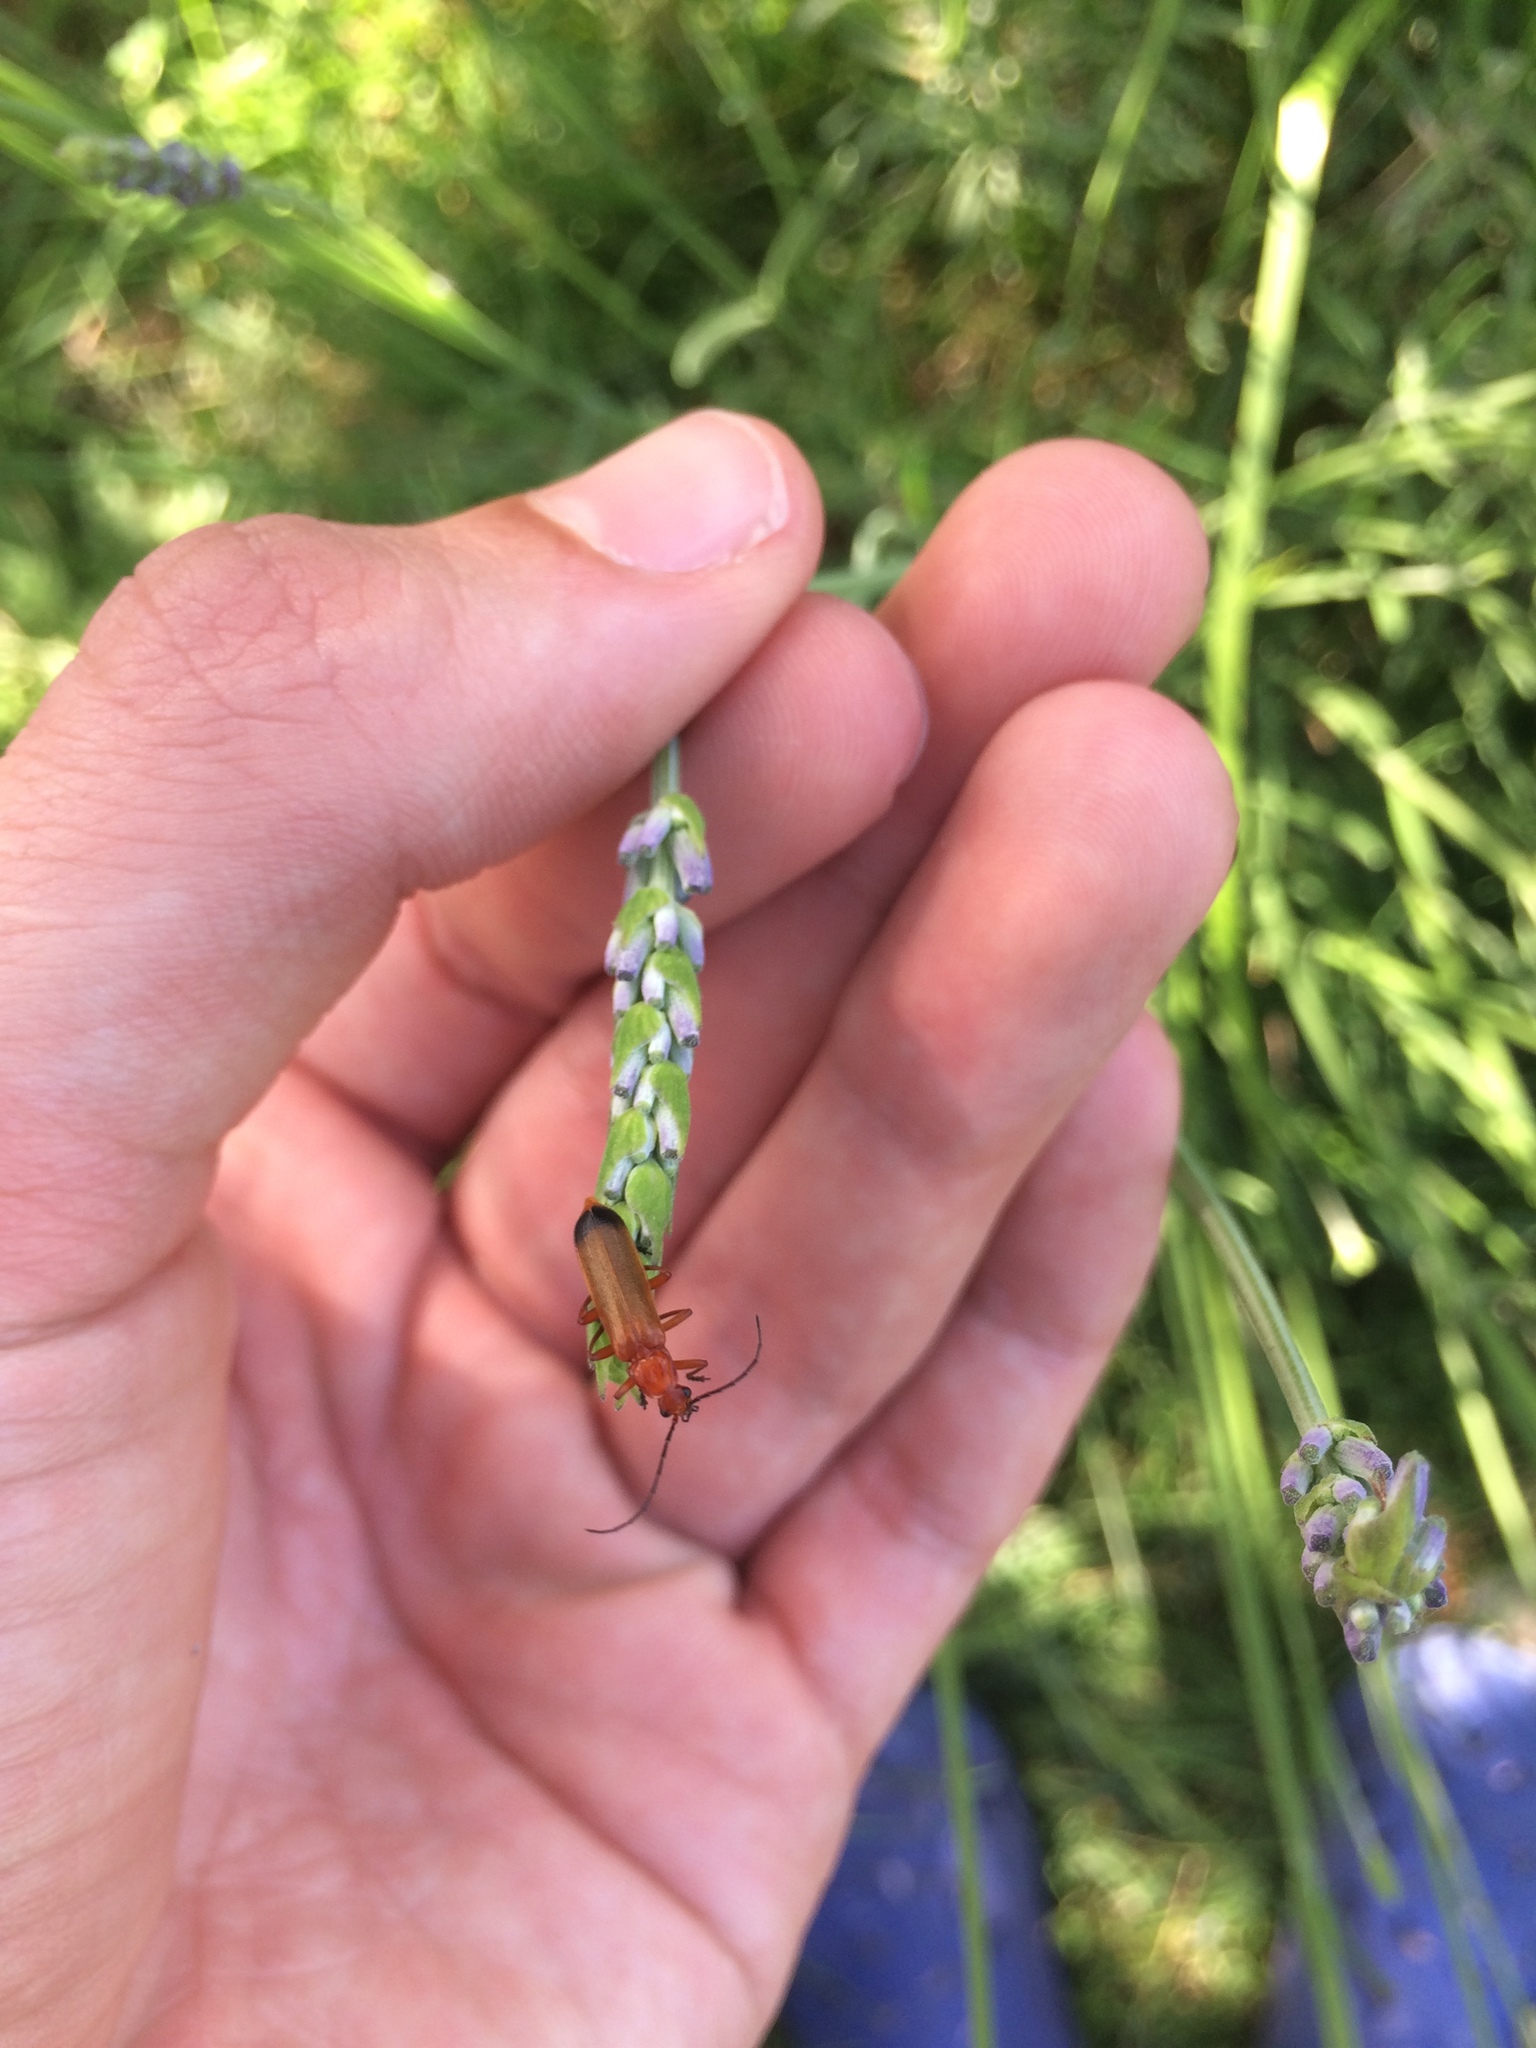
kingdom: Animalia
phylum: Arthropoda
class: Insecta
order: Coleoptera
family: Cantharidae
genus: Rhagonycha
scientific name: Rhagonycha fulva
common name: Common red soldier beetle
